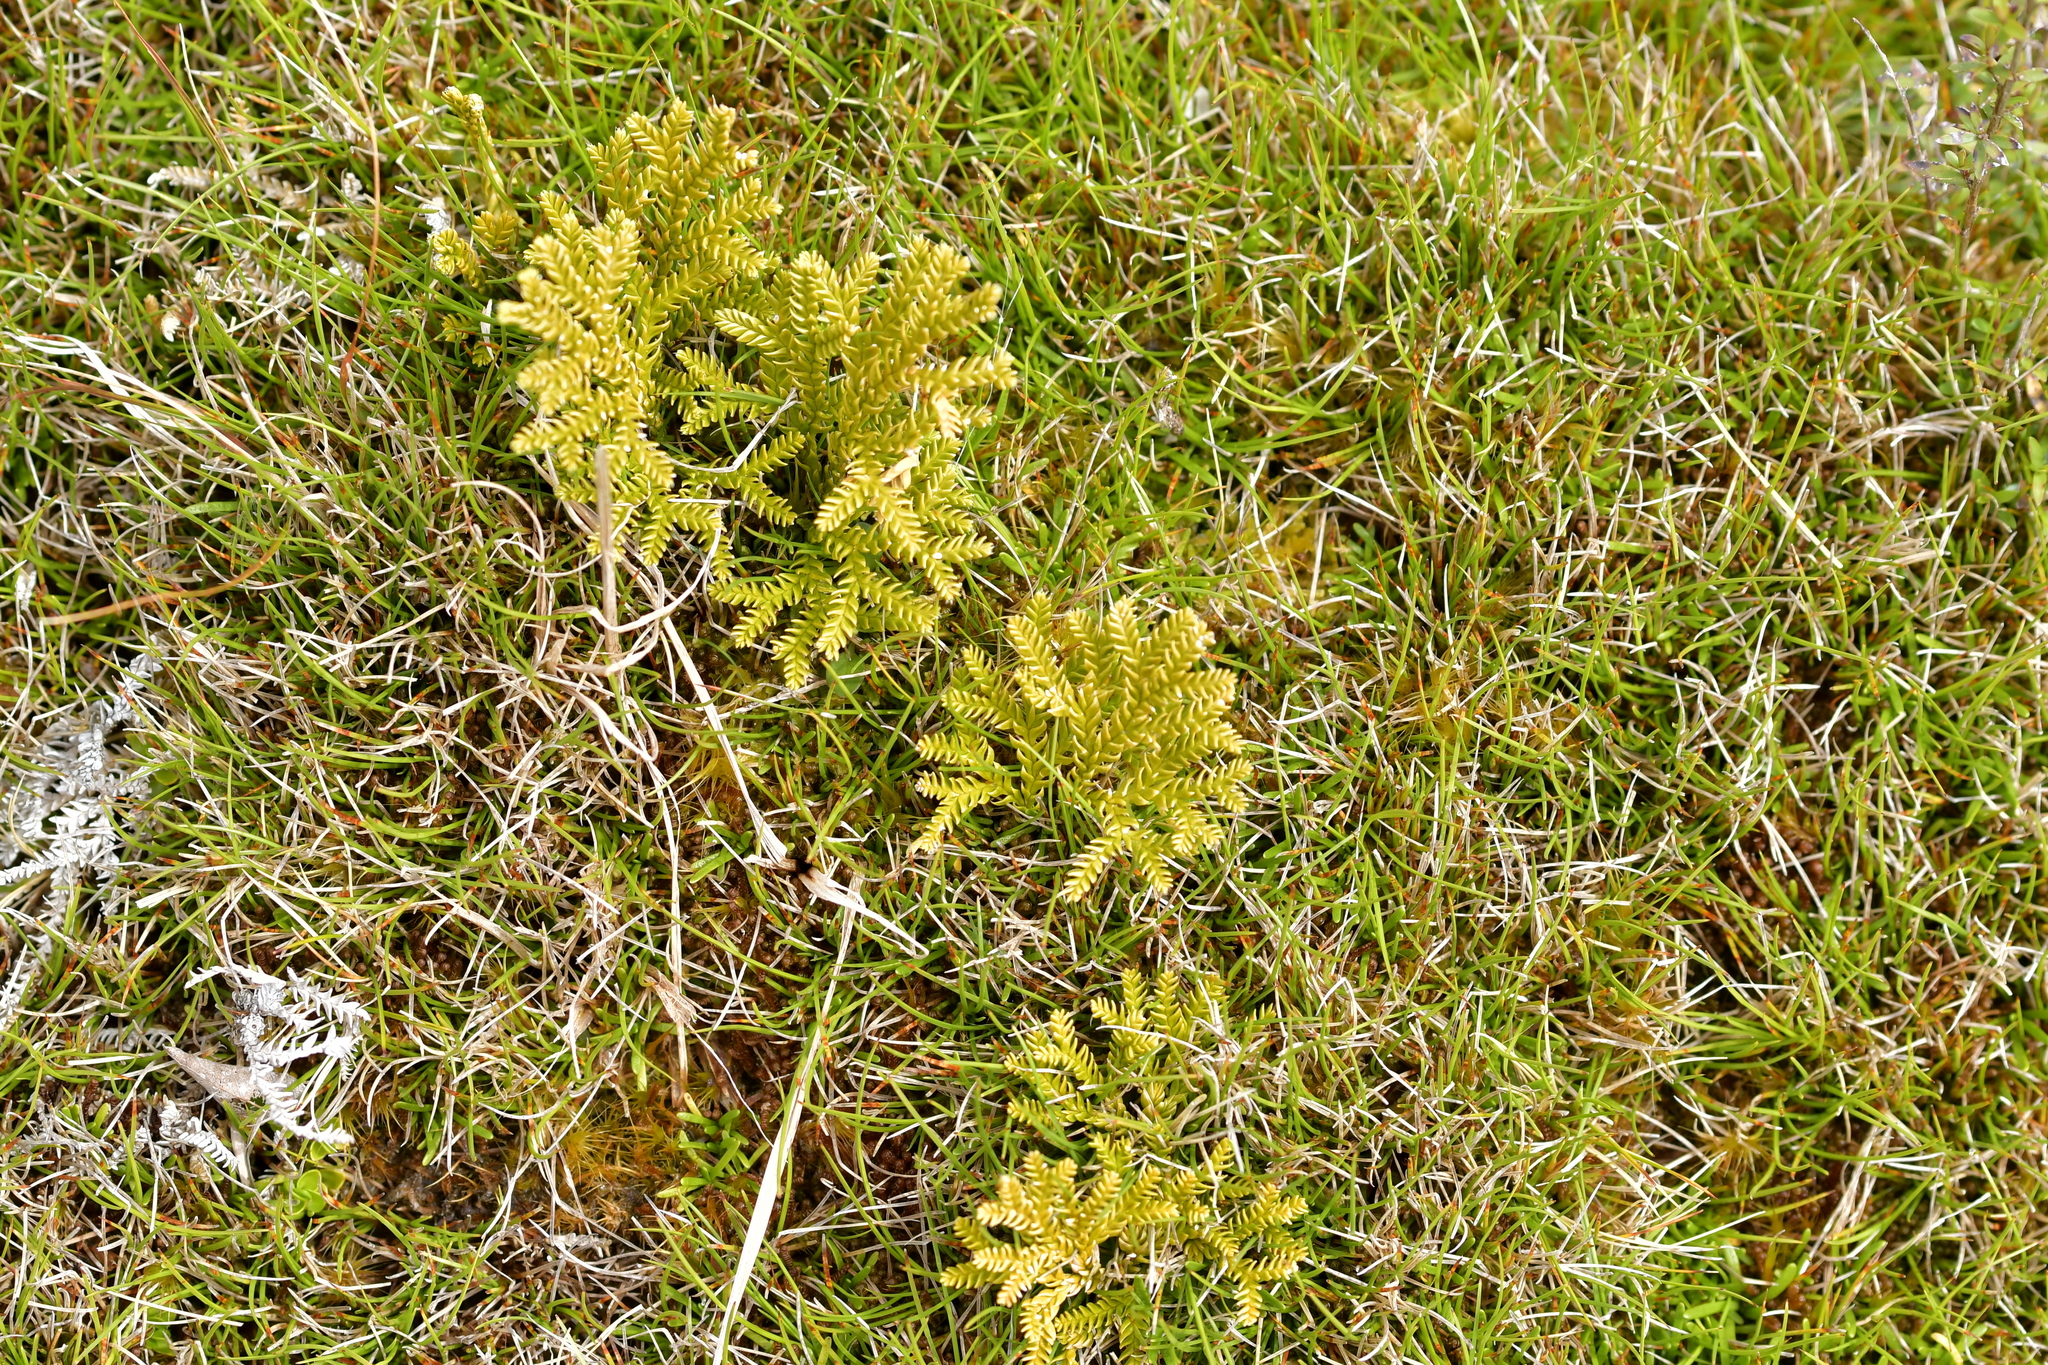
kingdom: Plantae
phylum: Tracheophyta
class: Lycopodiopsida
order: Lycopodiales
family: Lycopodiaceae
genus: Diphasium
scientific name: Diphasium scariosum
